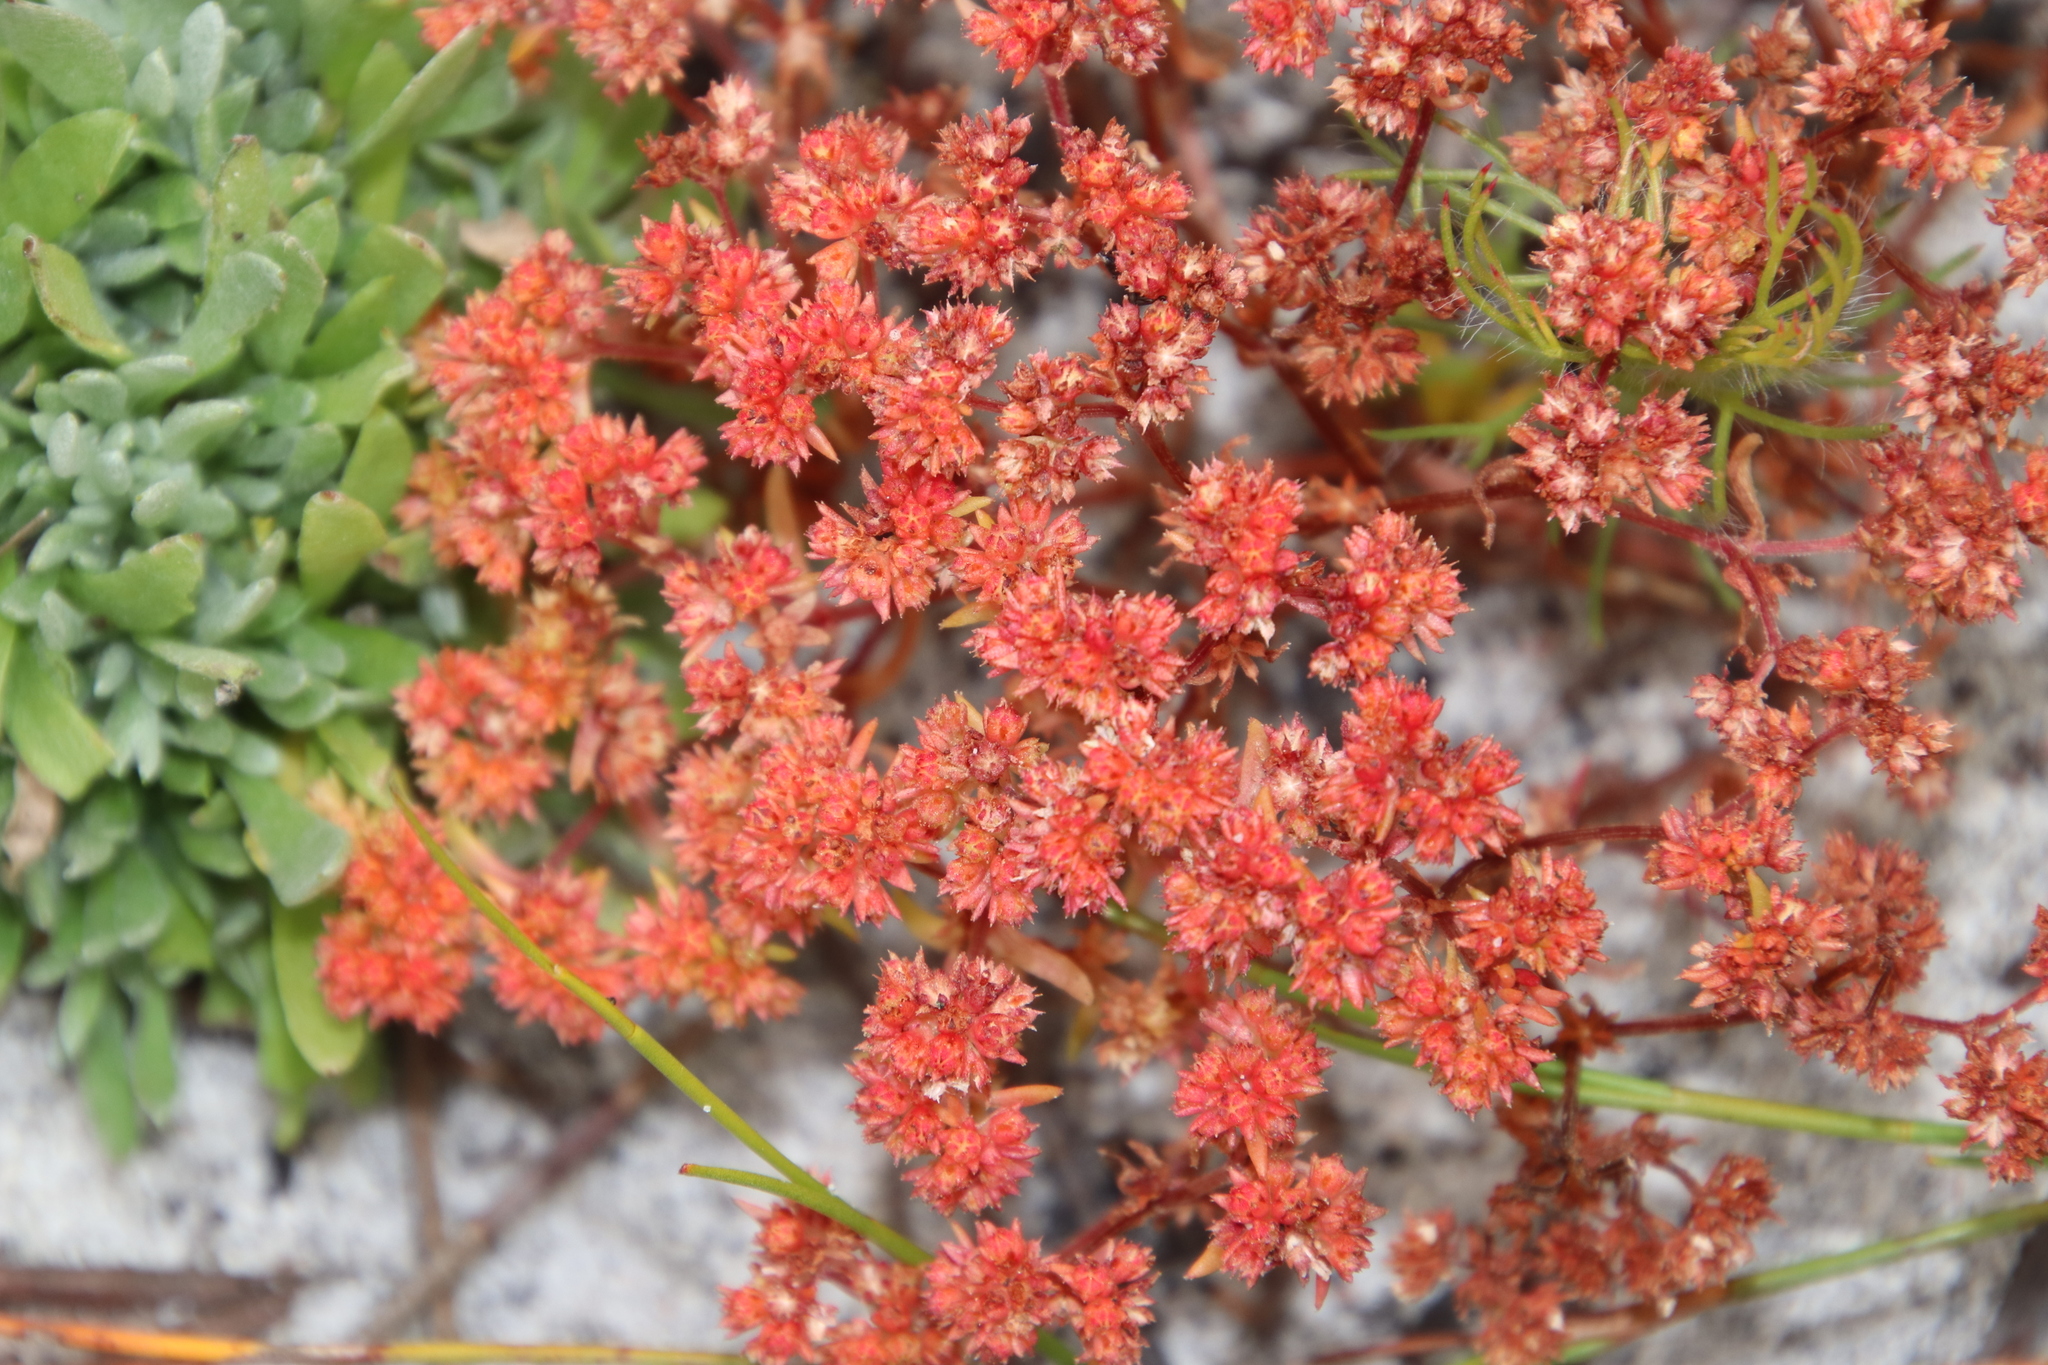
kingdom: Plantae
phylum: Tracheophyta
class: Magnoliopsida
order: Saxifragales
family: Crassulaceae
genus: Crassula
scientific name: Crassula glomerata
